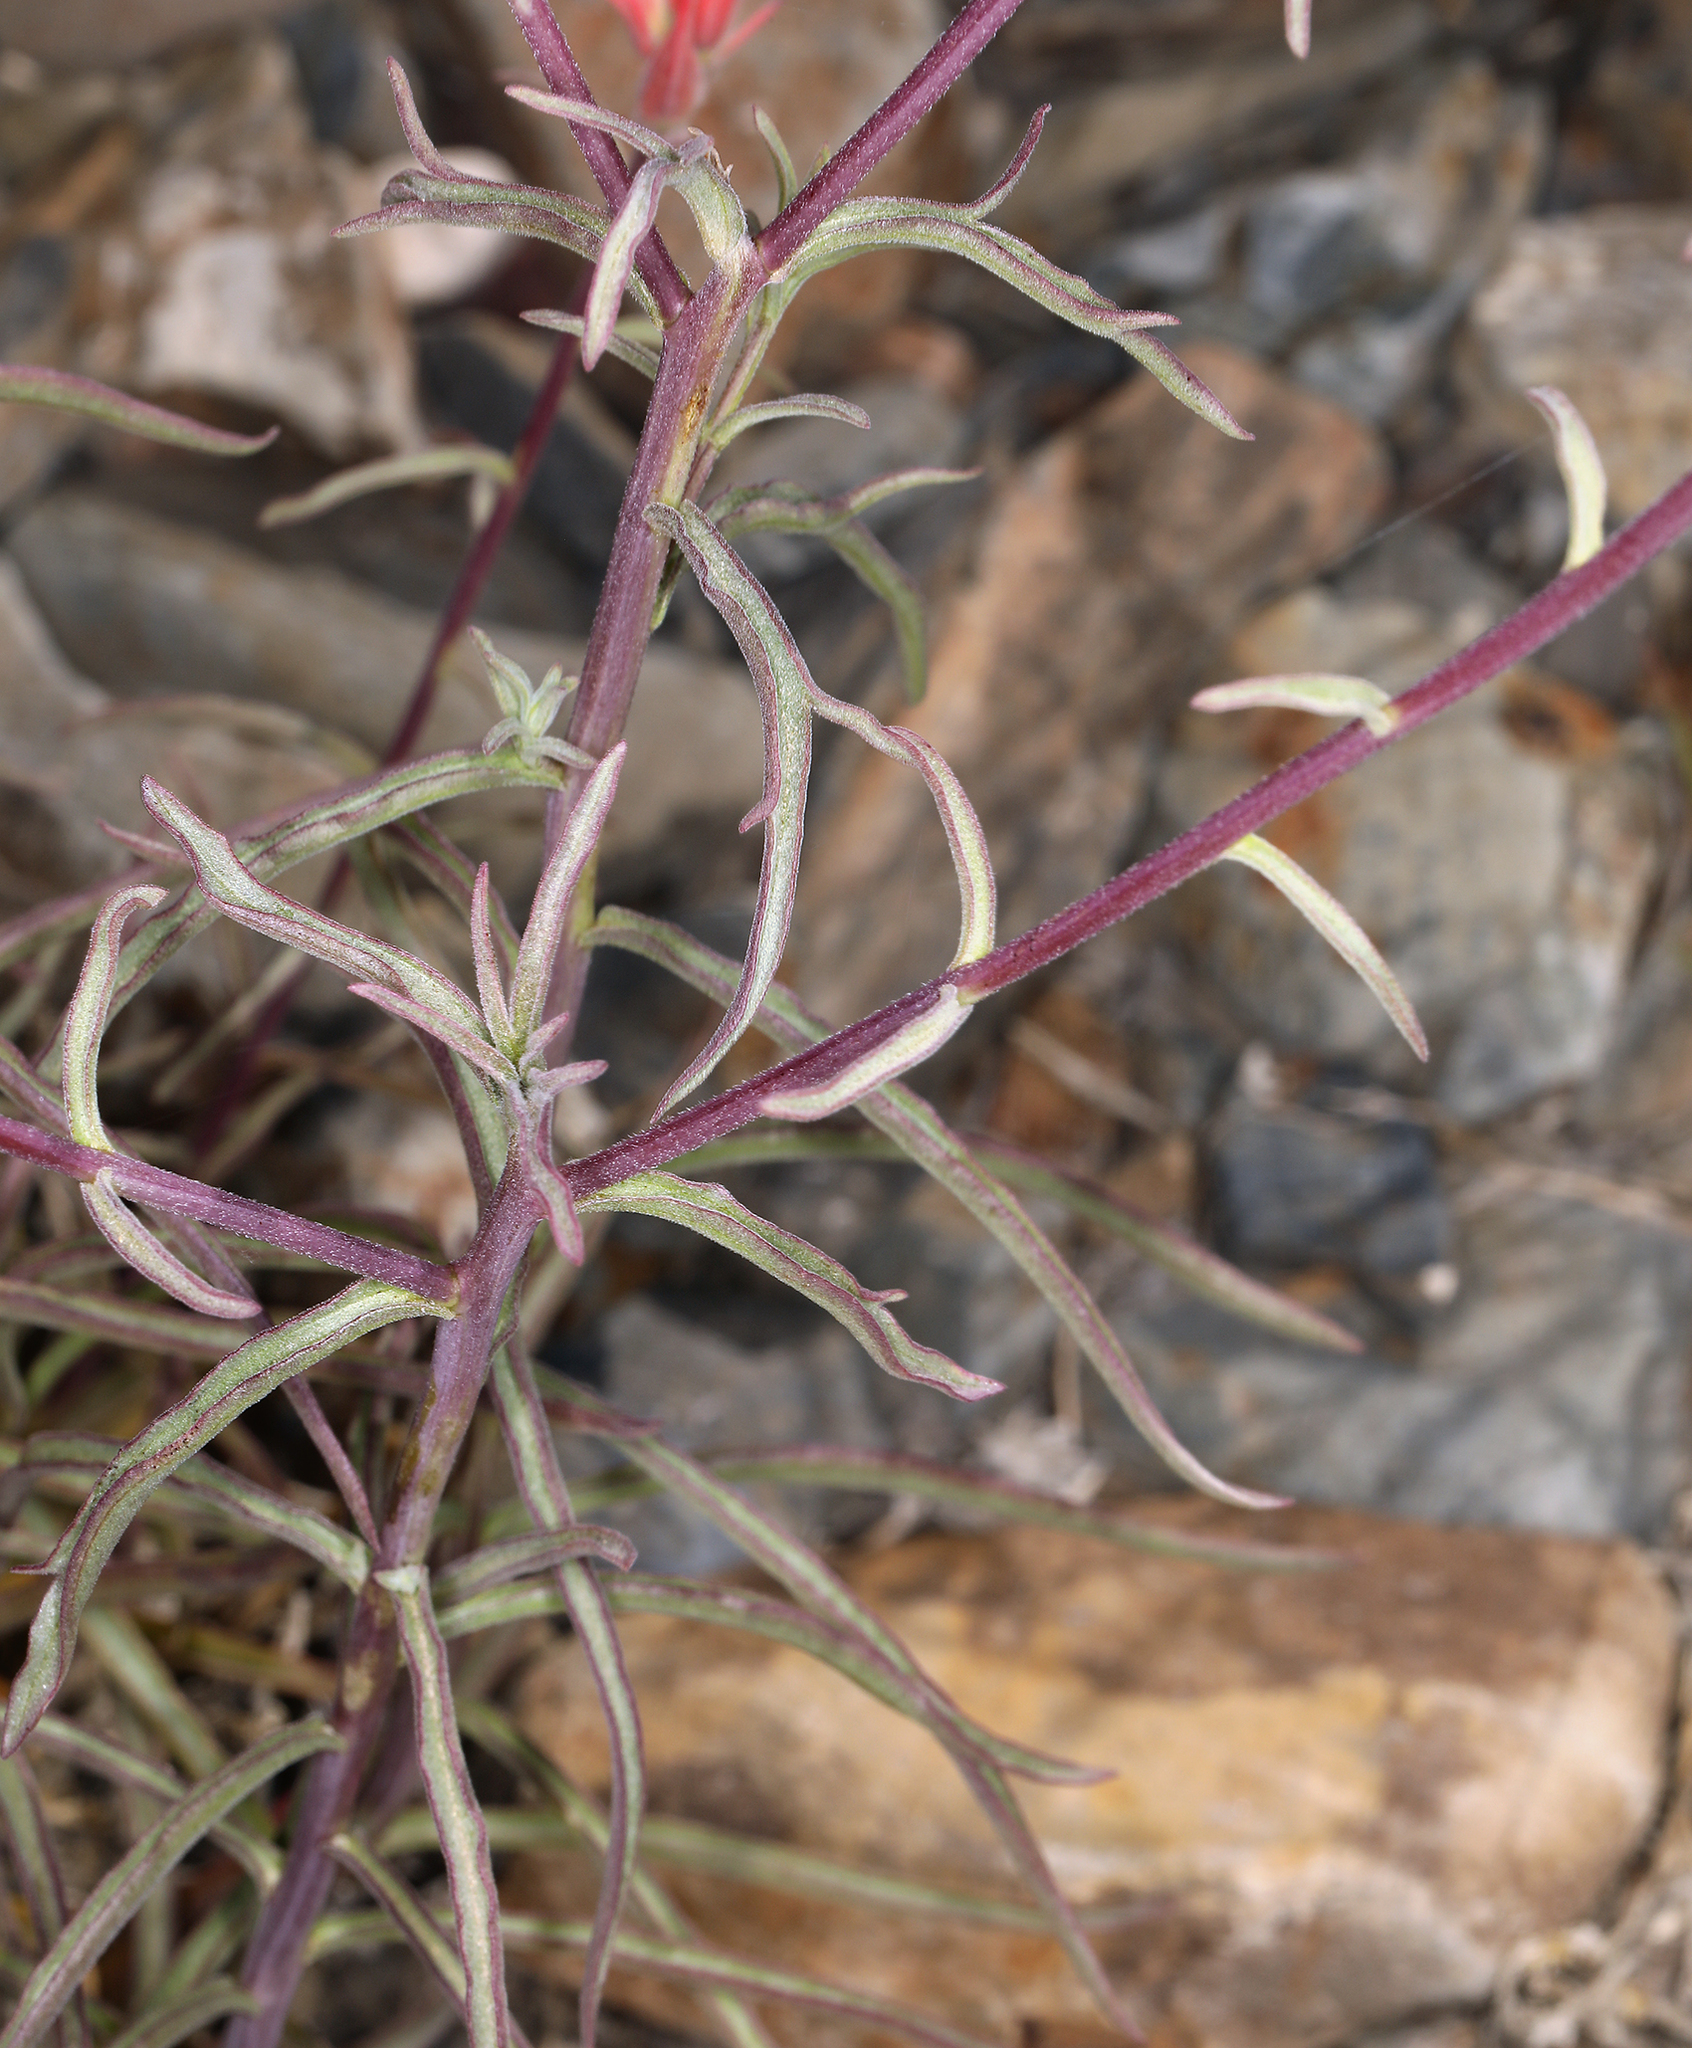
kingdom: Plantae
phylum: Tracheophyta
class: Magnoliopsida
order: Lamiales
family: Orobanchaceae
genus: Castilleja
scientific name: Castilleja linariifolia
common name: Wyoming paintbrush
